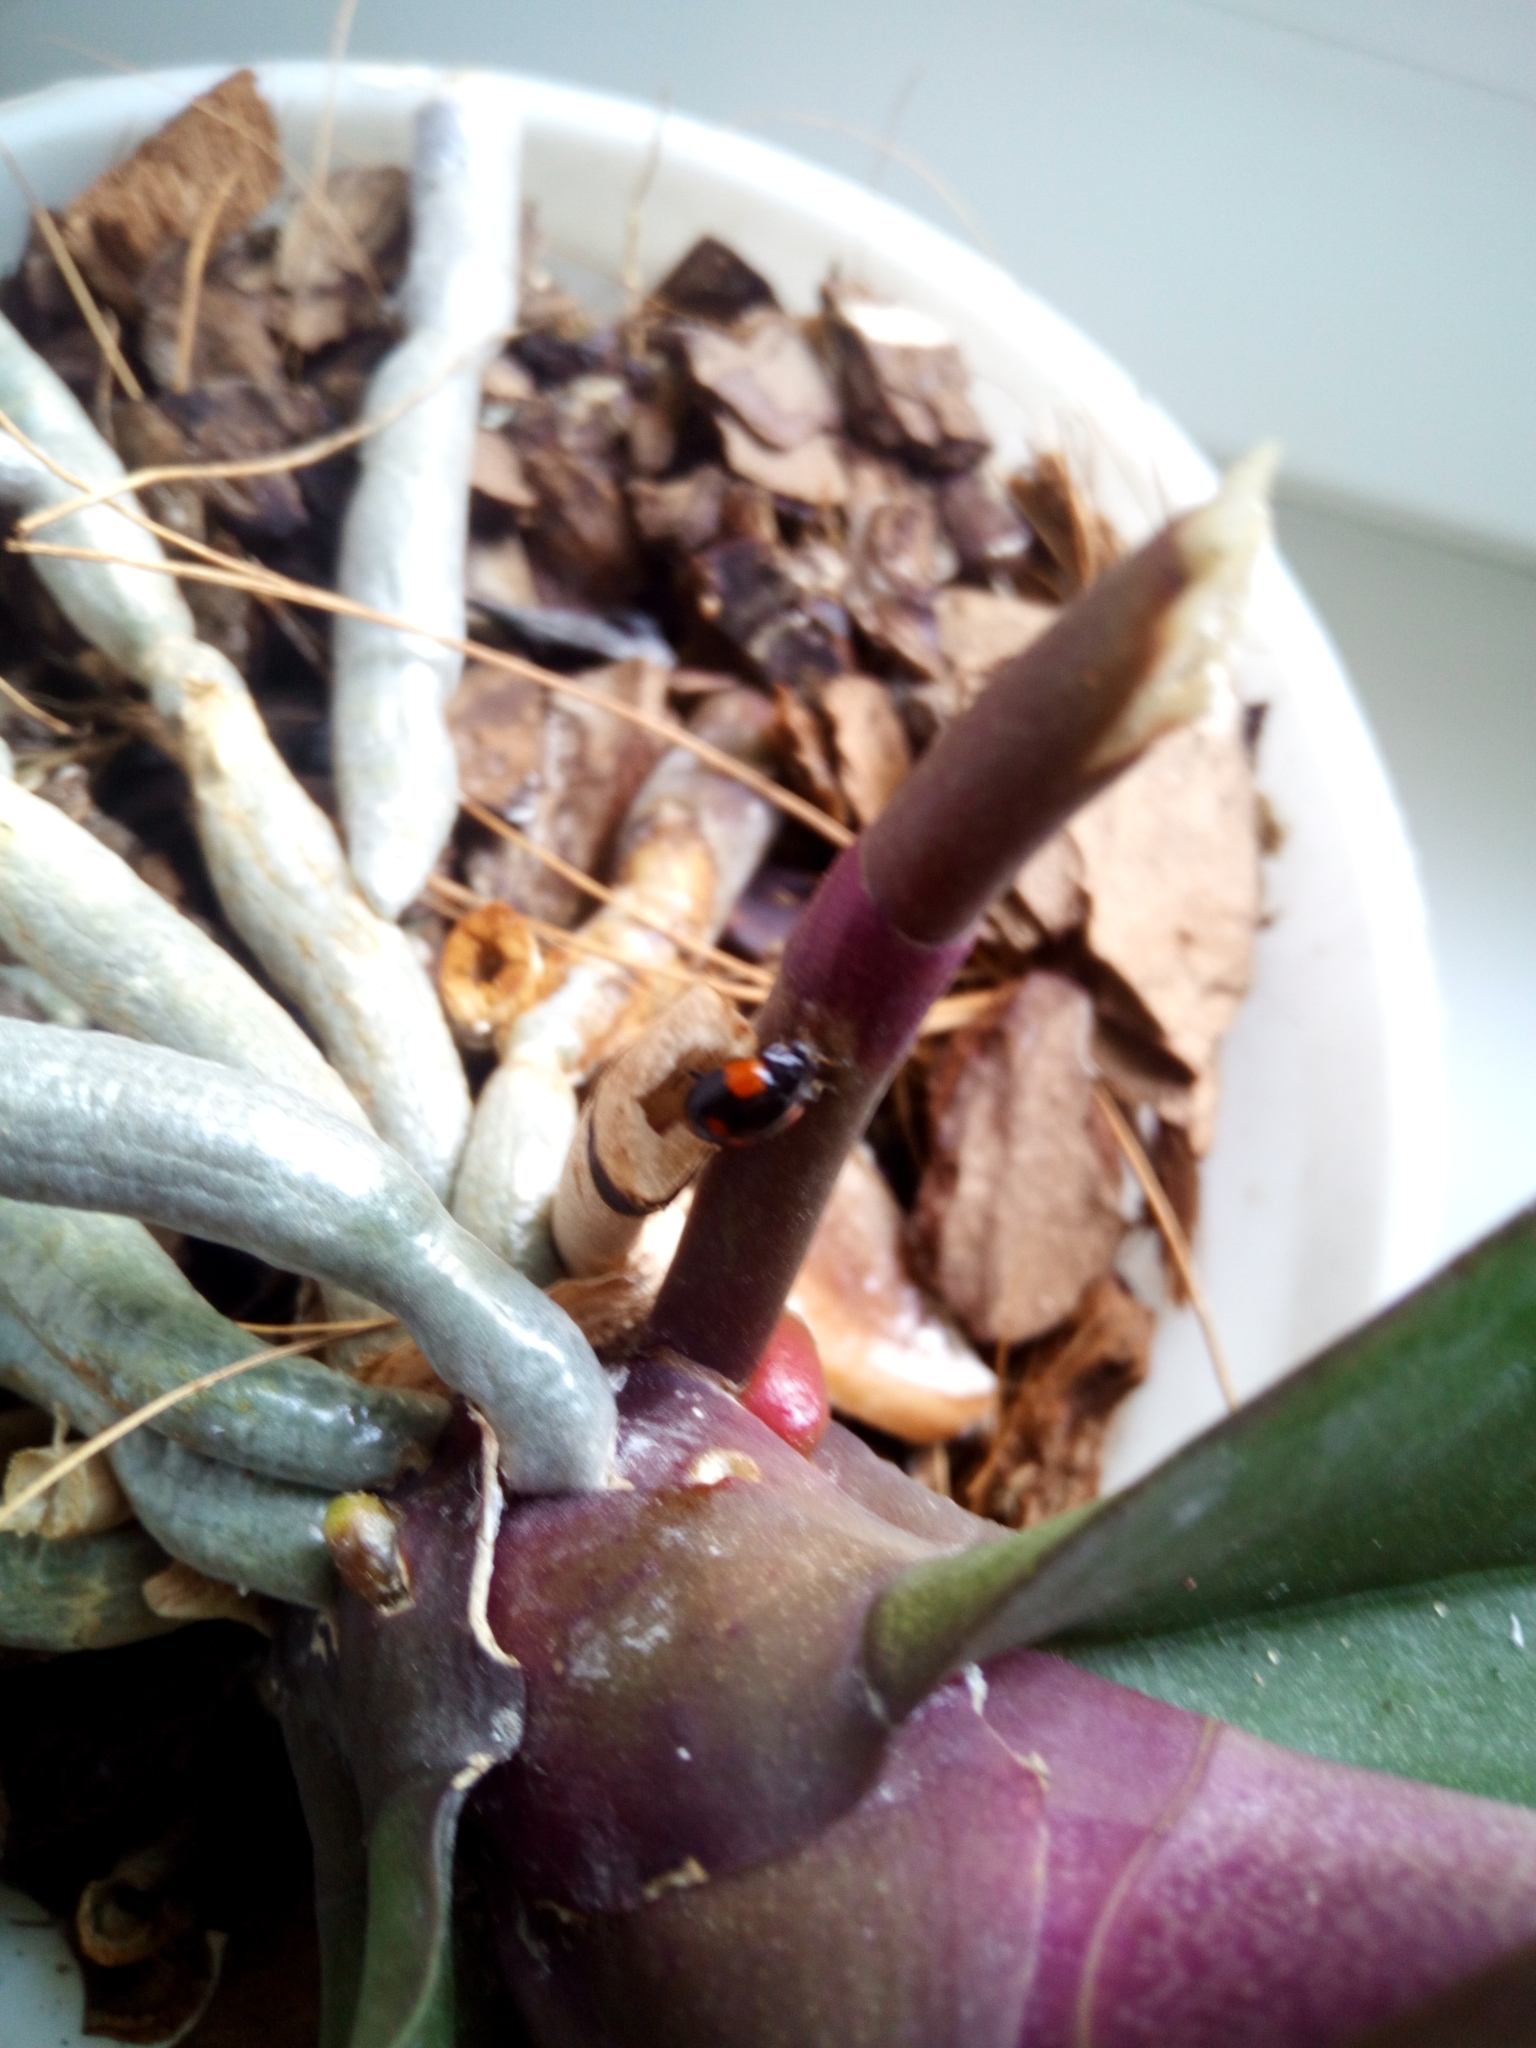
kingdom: Animalia
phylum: Arthropoda
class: Insecta
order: Coleoptera
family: Coccinellidae
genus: Adalia
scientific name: Adalia bipunctata
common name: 2-spot ladybird
